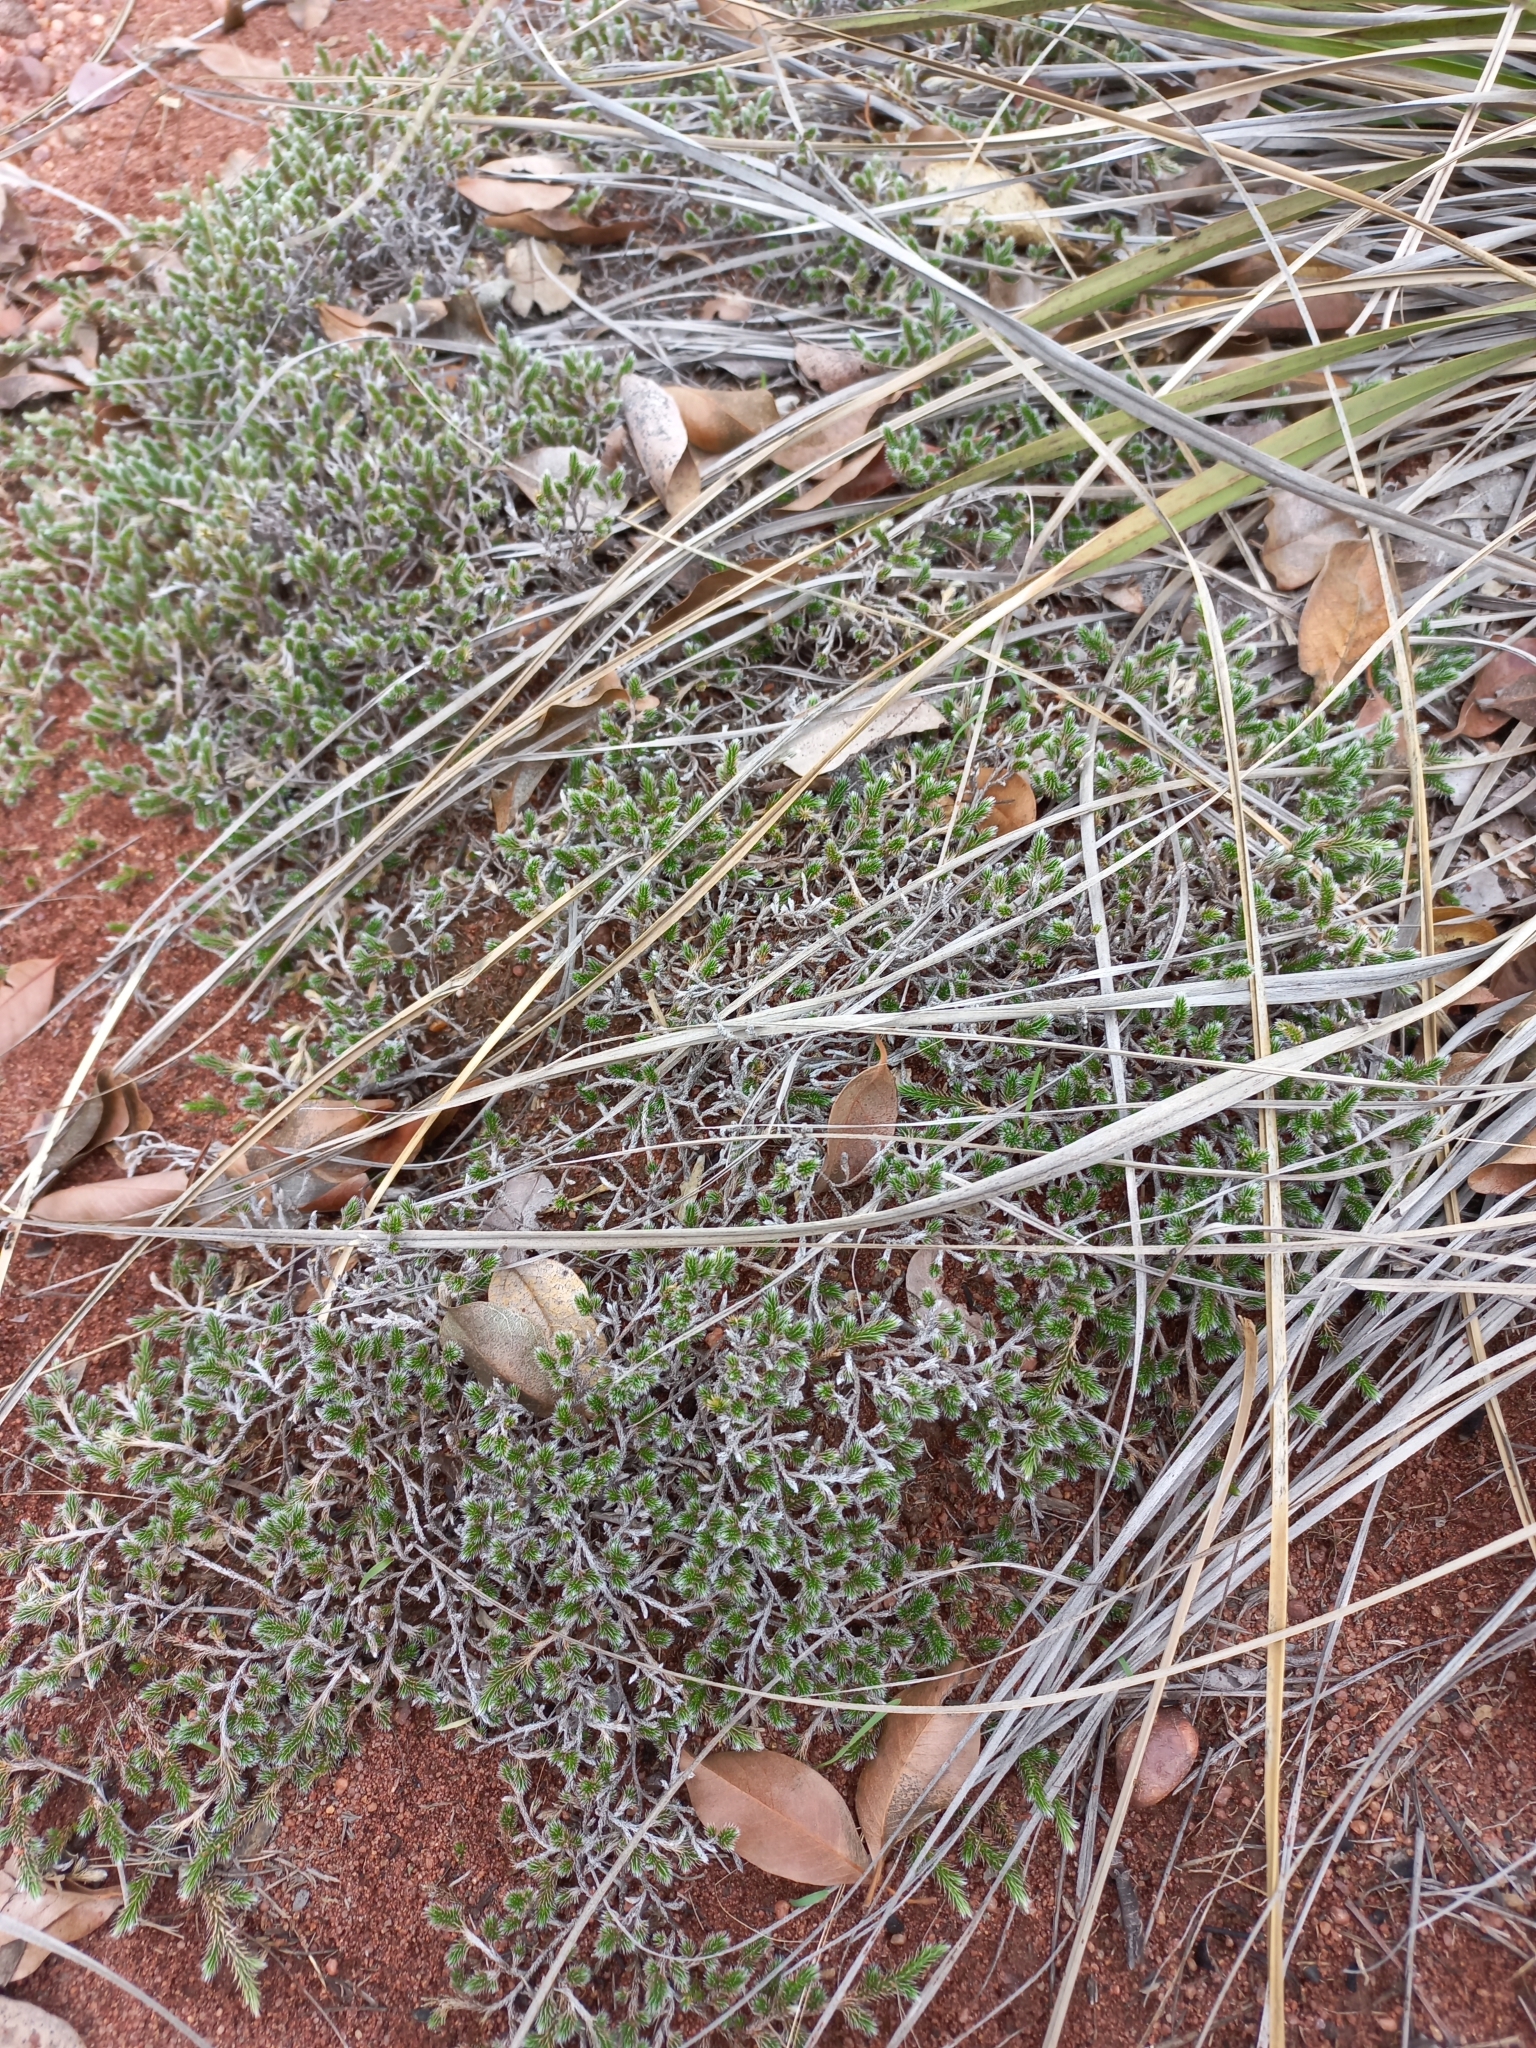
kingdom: Plantae
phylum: Tracheophyta
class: Lycopodiopsida
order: Selaginellales
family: Selaginellaceae
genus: Selaginella
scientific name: Selaginella dregei
